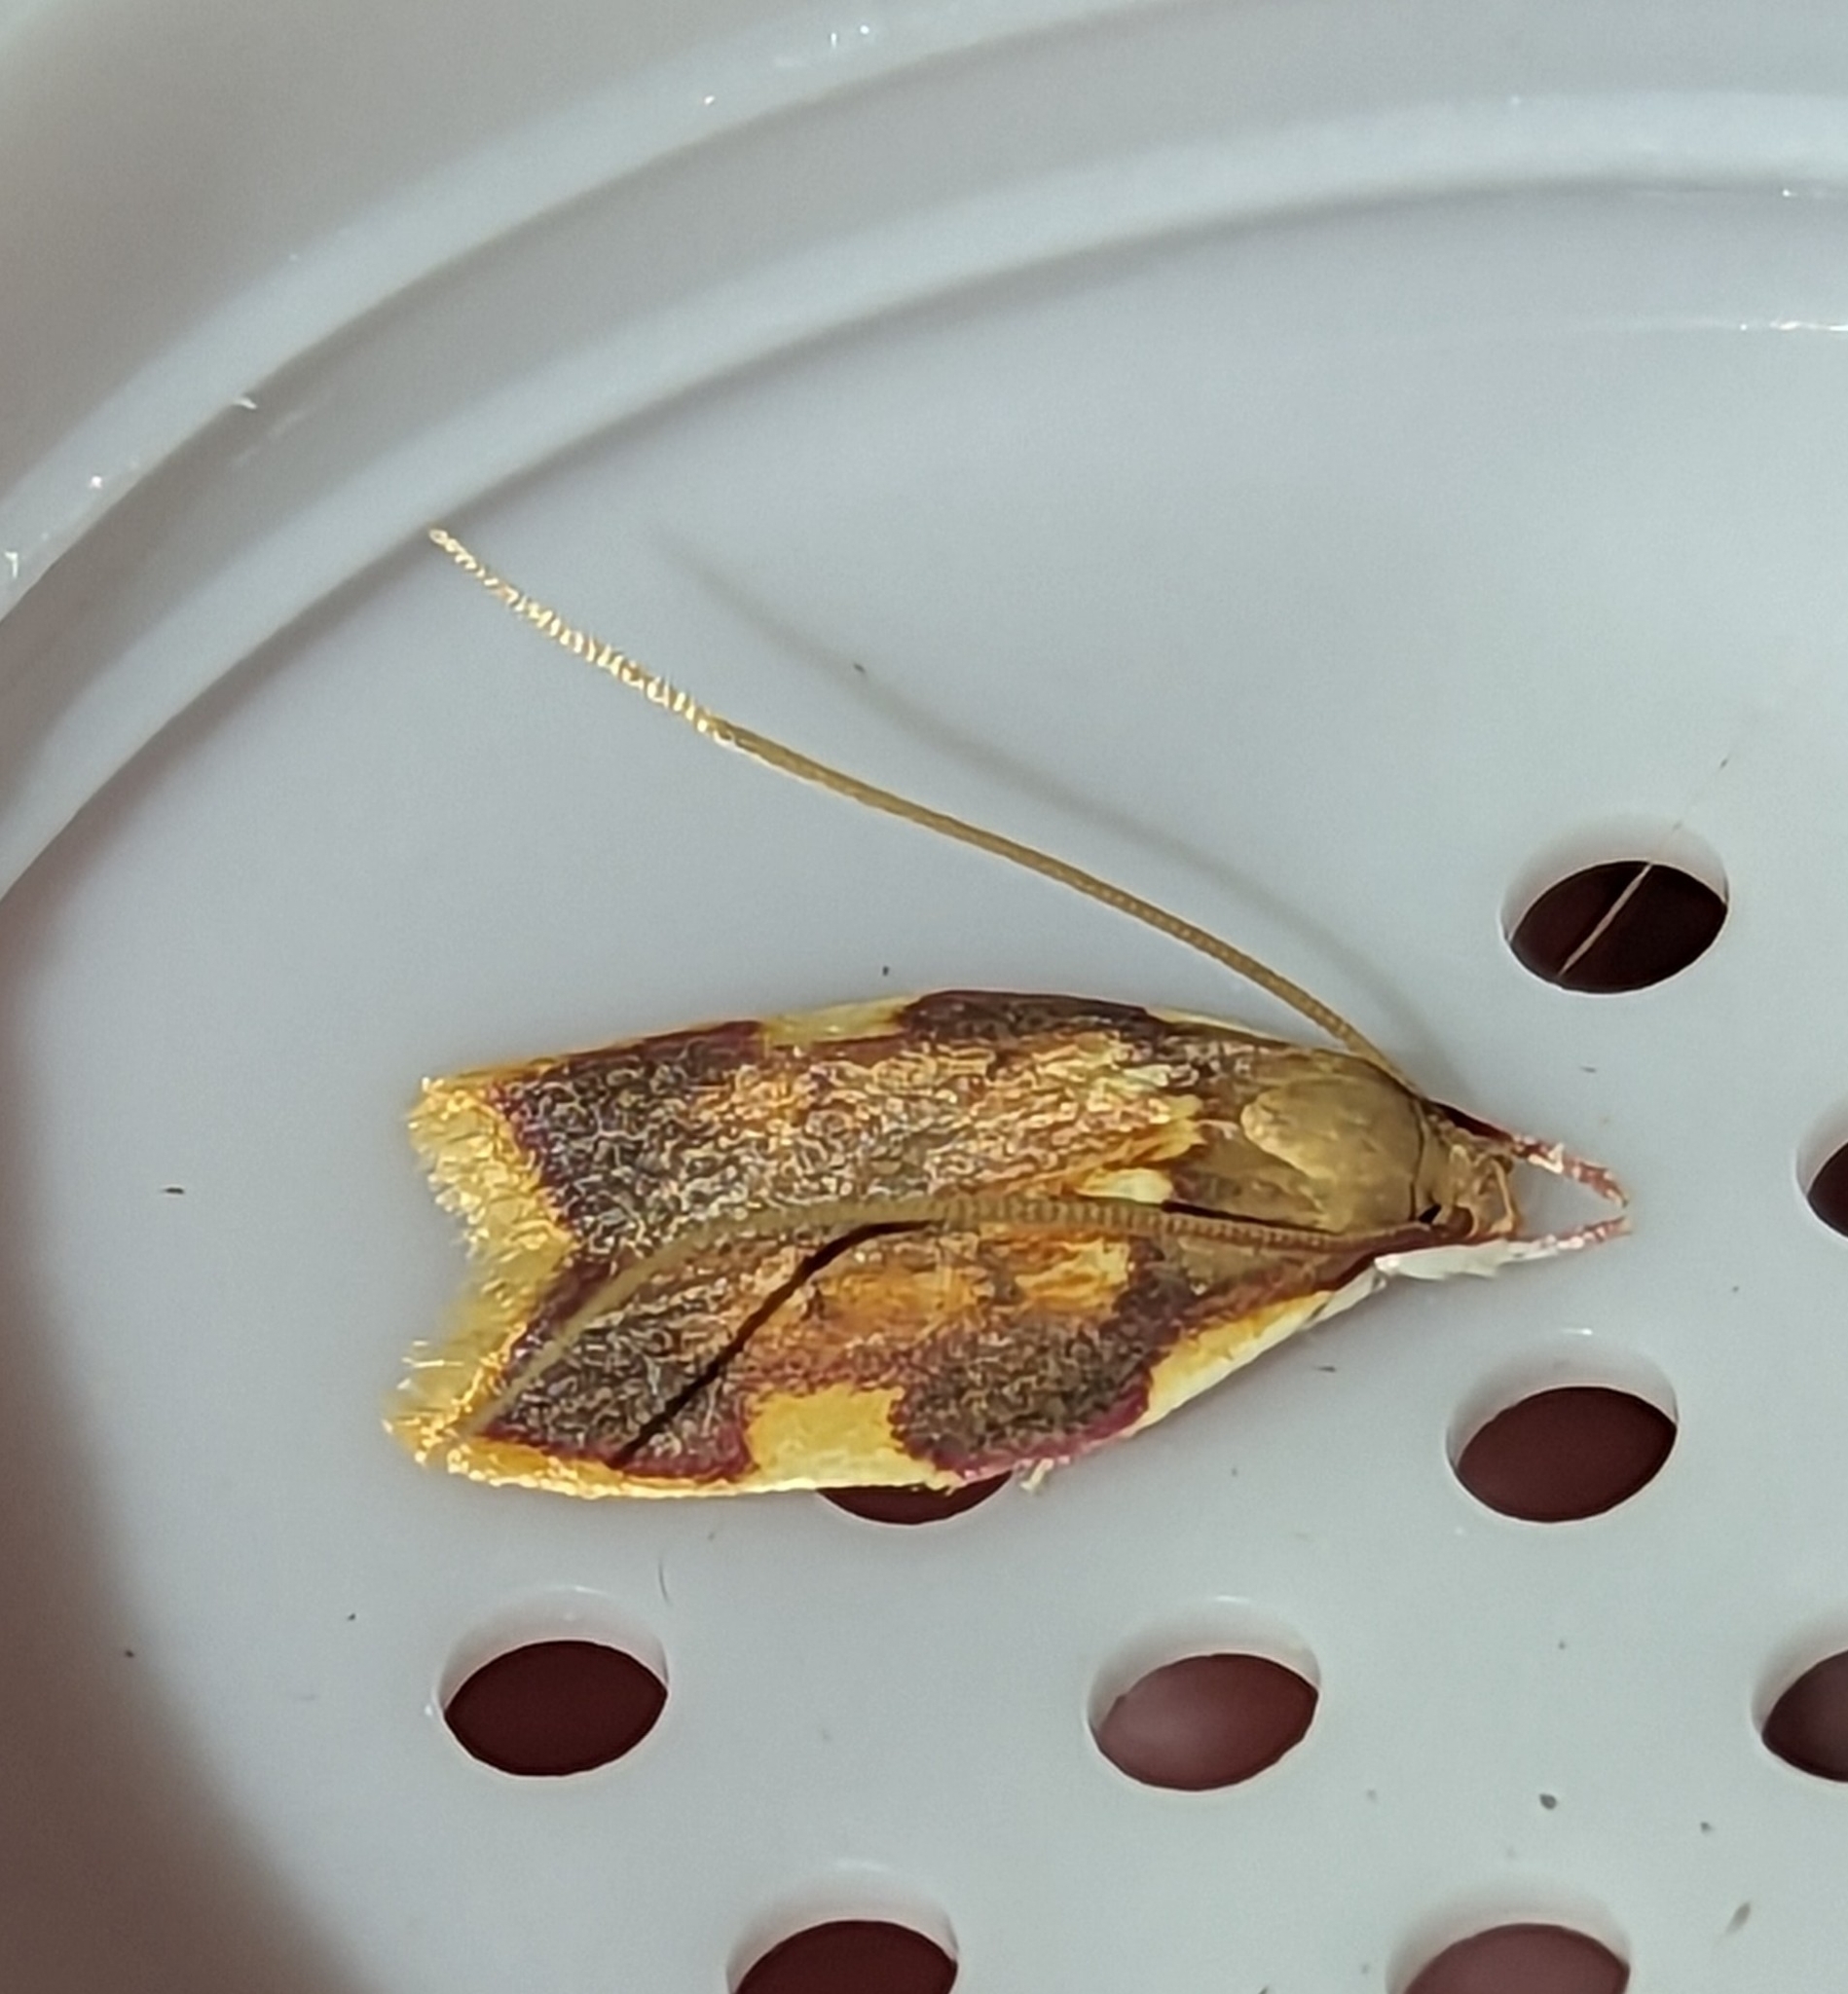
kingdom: Animalia
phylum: Arthropoda
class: Insecta
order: Lepidoptera
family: Peleopodidae
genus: Carcina
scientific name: Carcina quercana
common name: Moth
